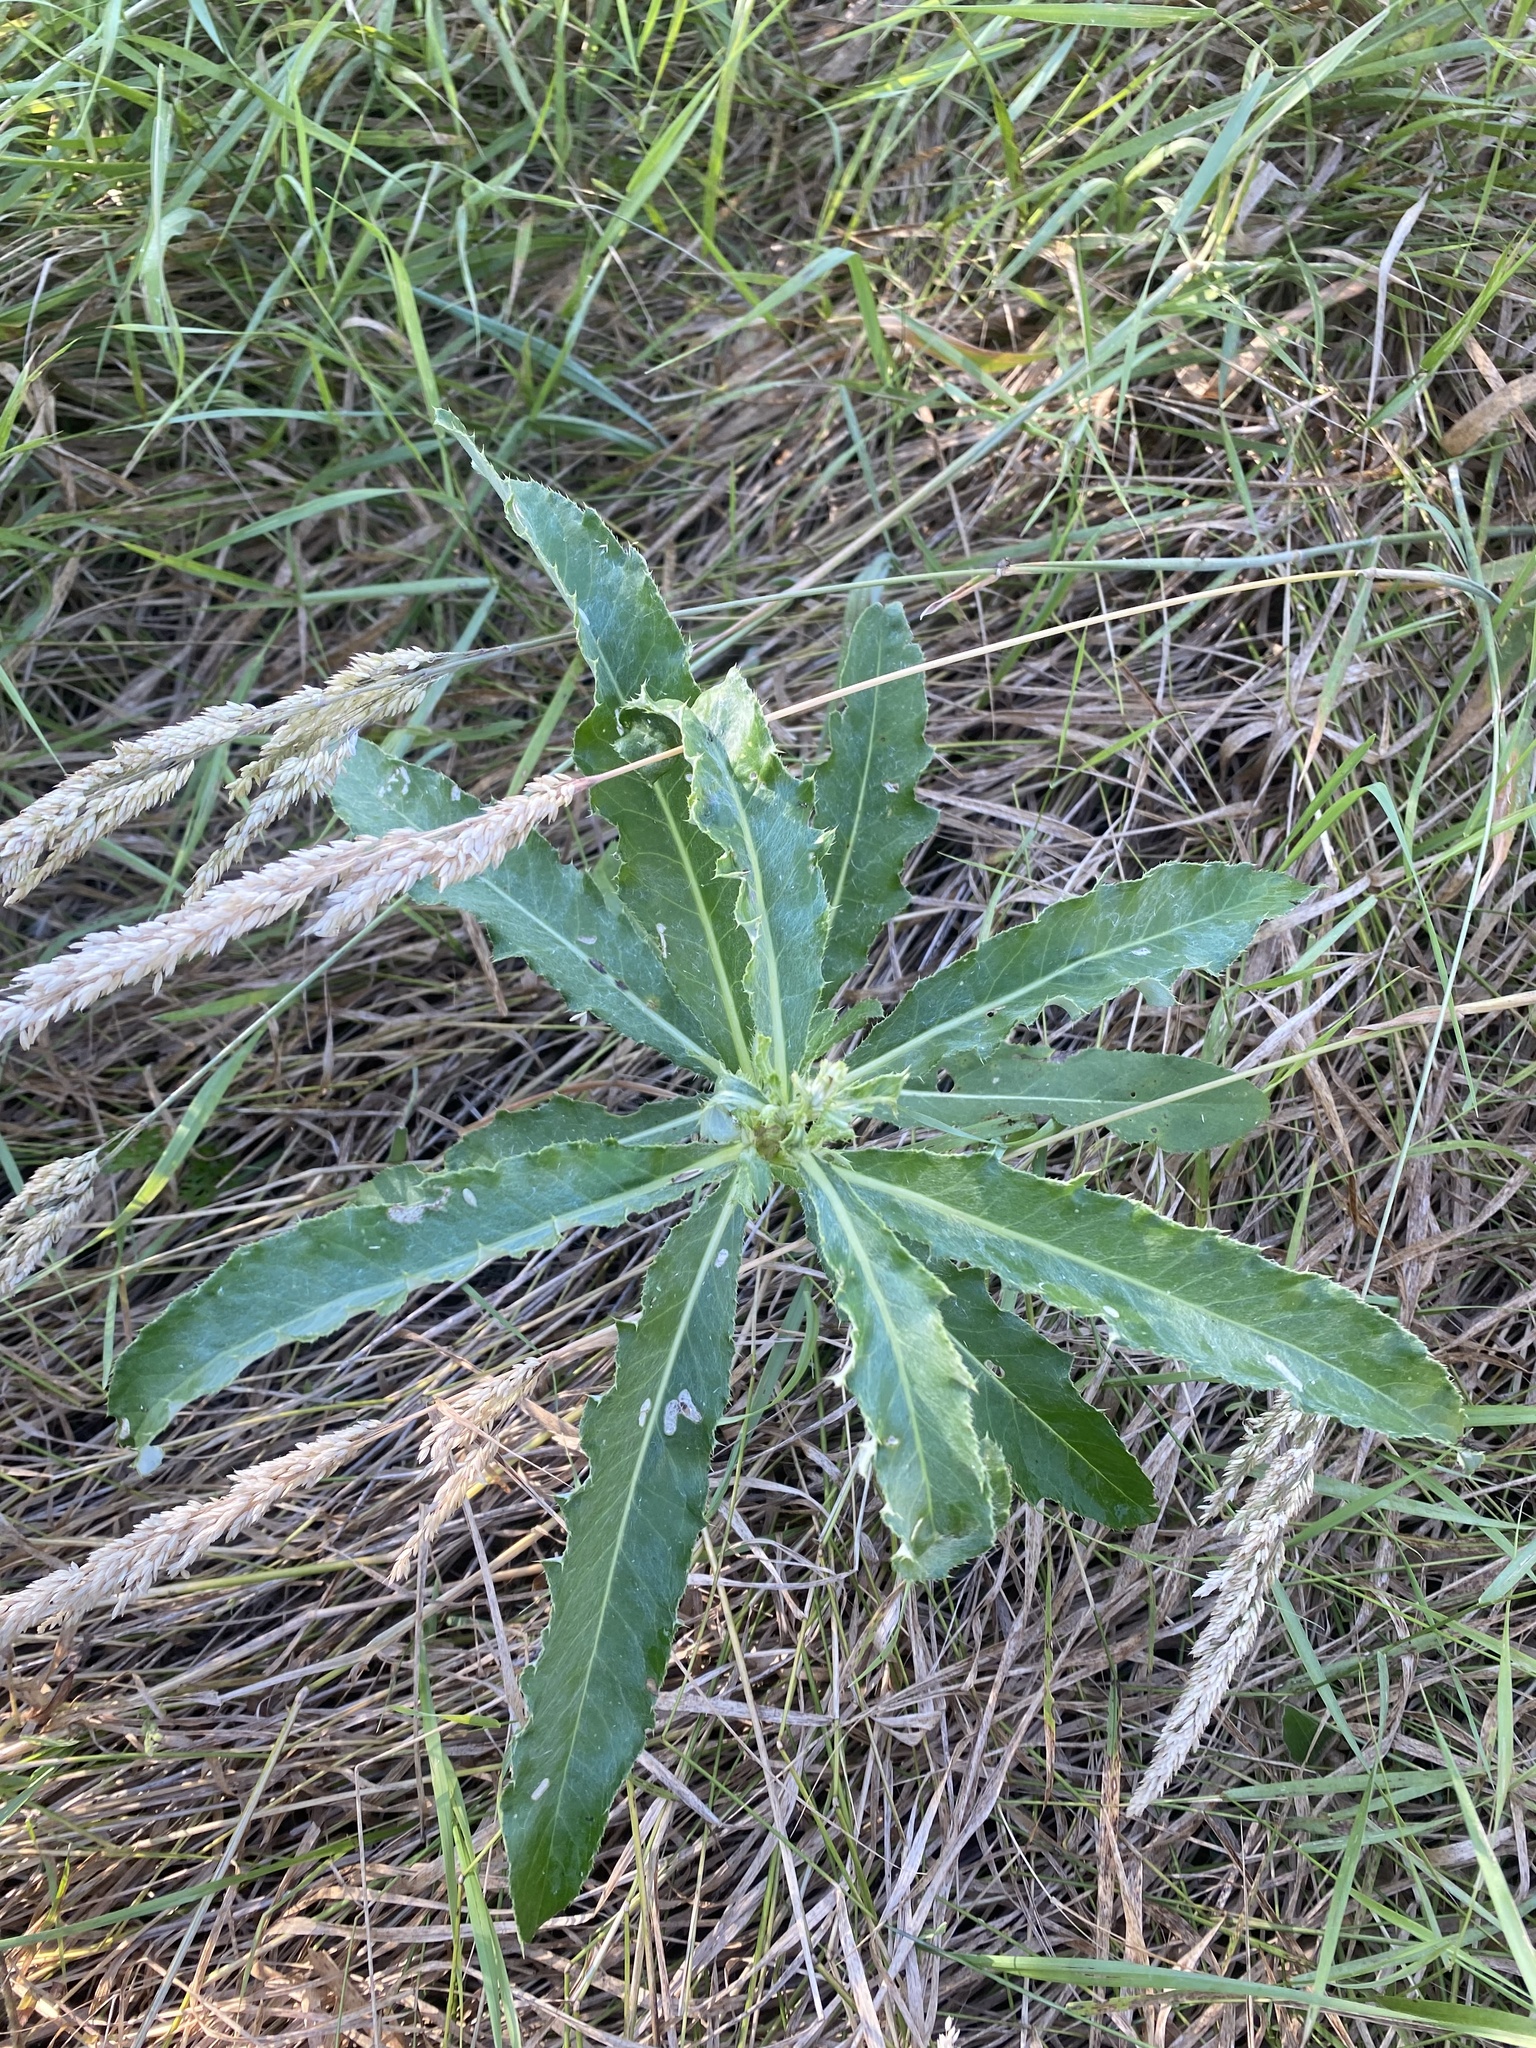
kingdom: Plantae
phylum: Tracheophyta
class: Magnoliopsida
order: Asterales
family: Asteraceae
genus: Cirsium
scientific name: Cirsium arvense
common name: Creeping thistle
